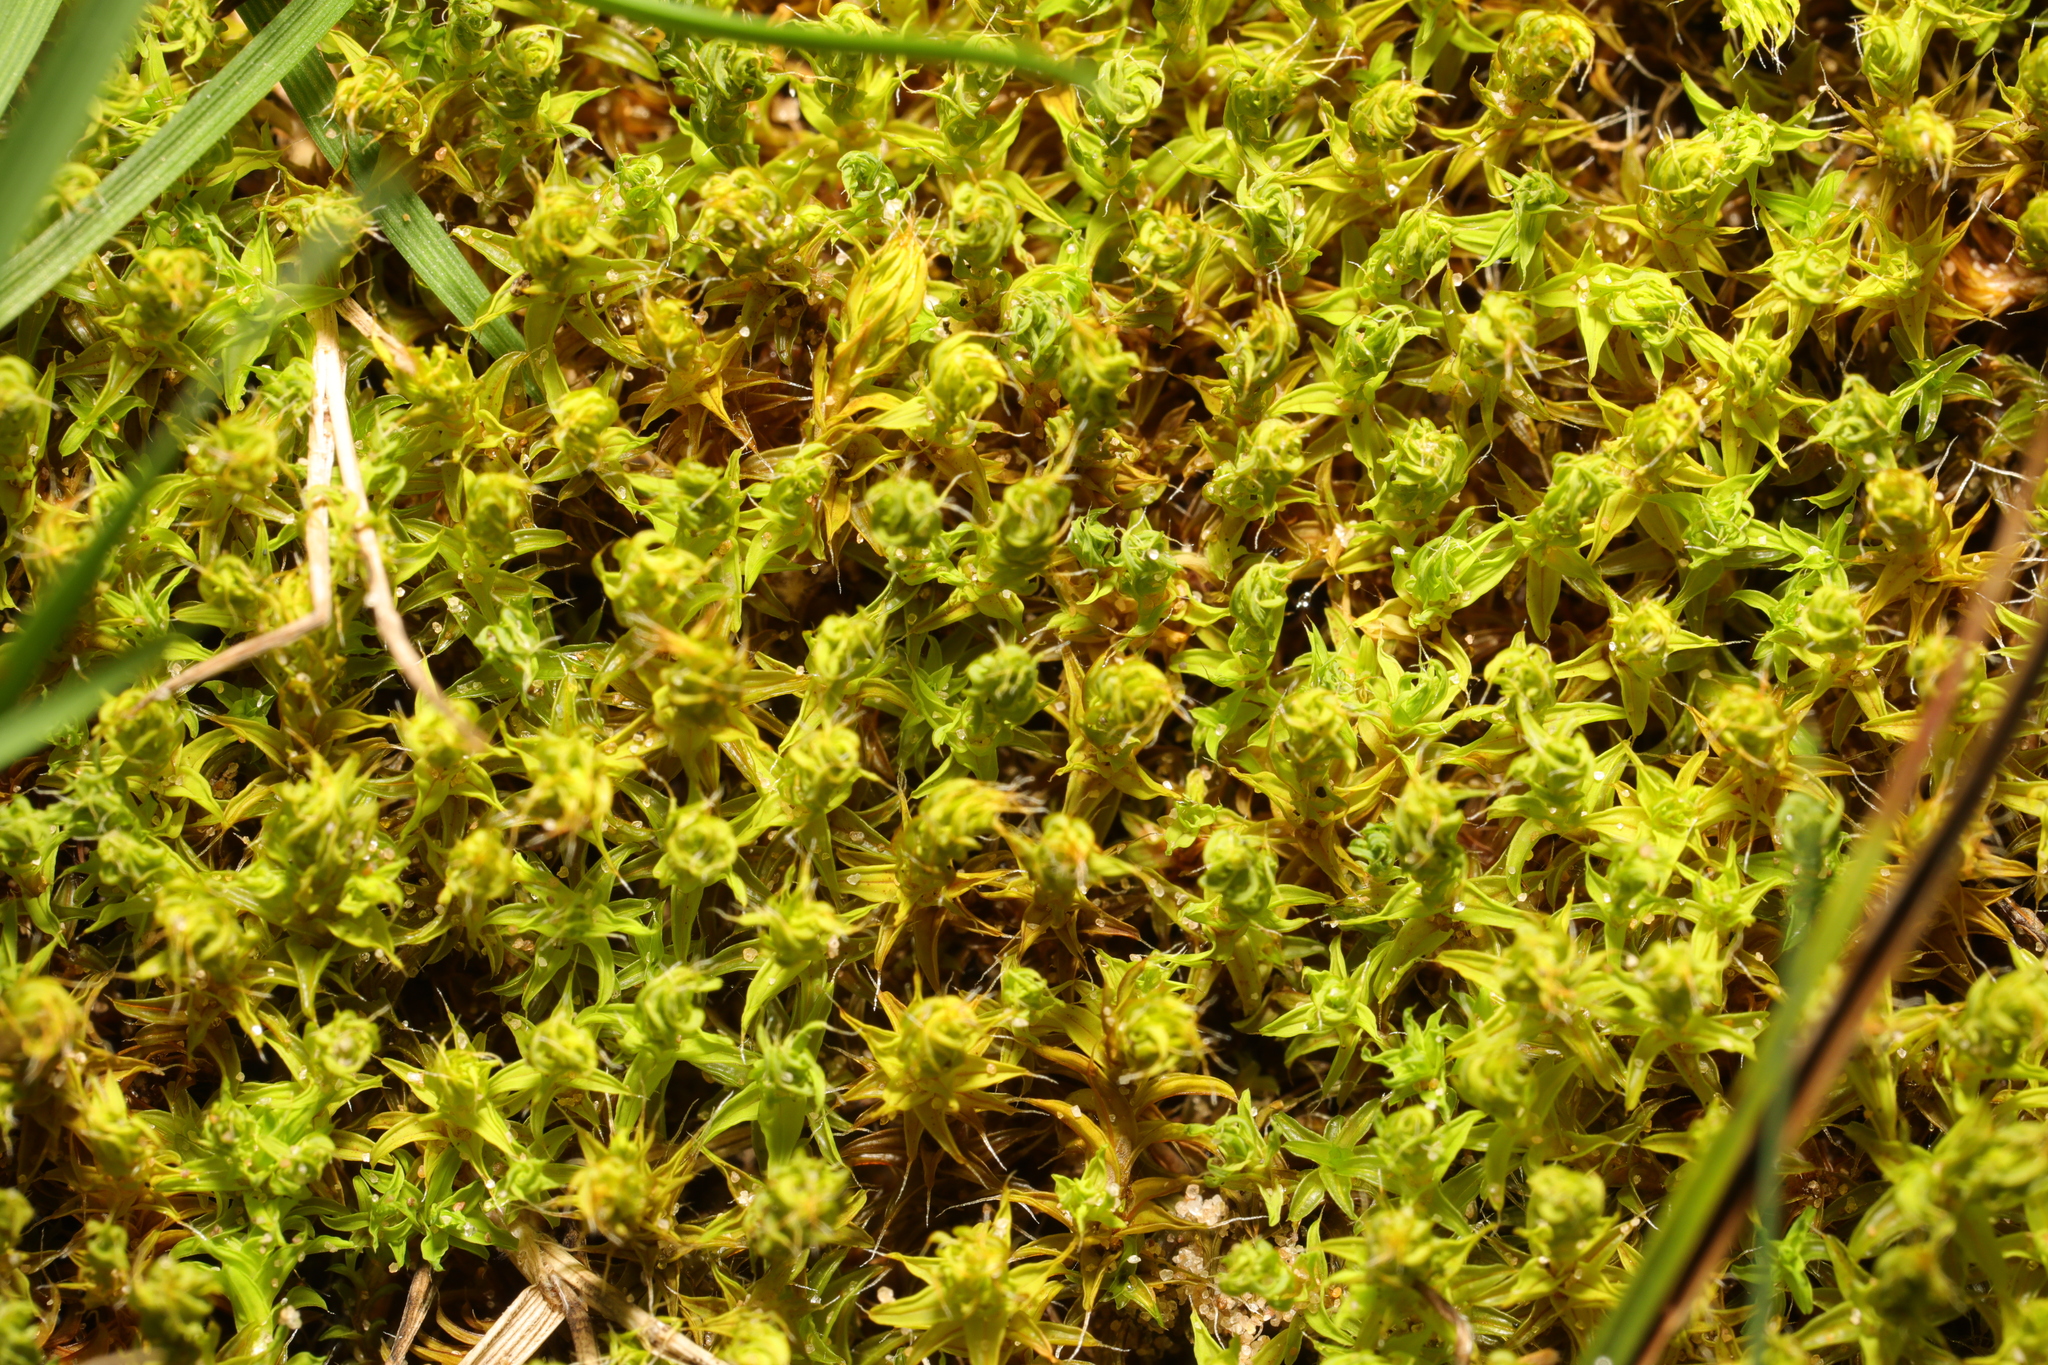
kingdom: Plantae
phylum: Bryophyta
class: Bryopsida
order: Pottiales
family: Pottiaceae
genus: Syntrichia
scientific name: Syntrichia ruralis
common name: Sidewalk screw moss
